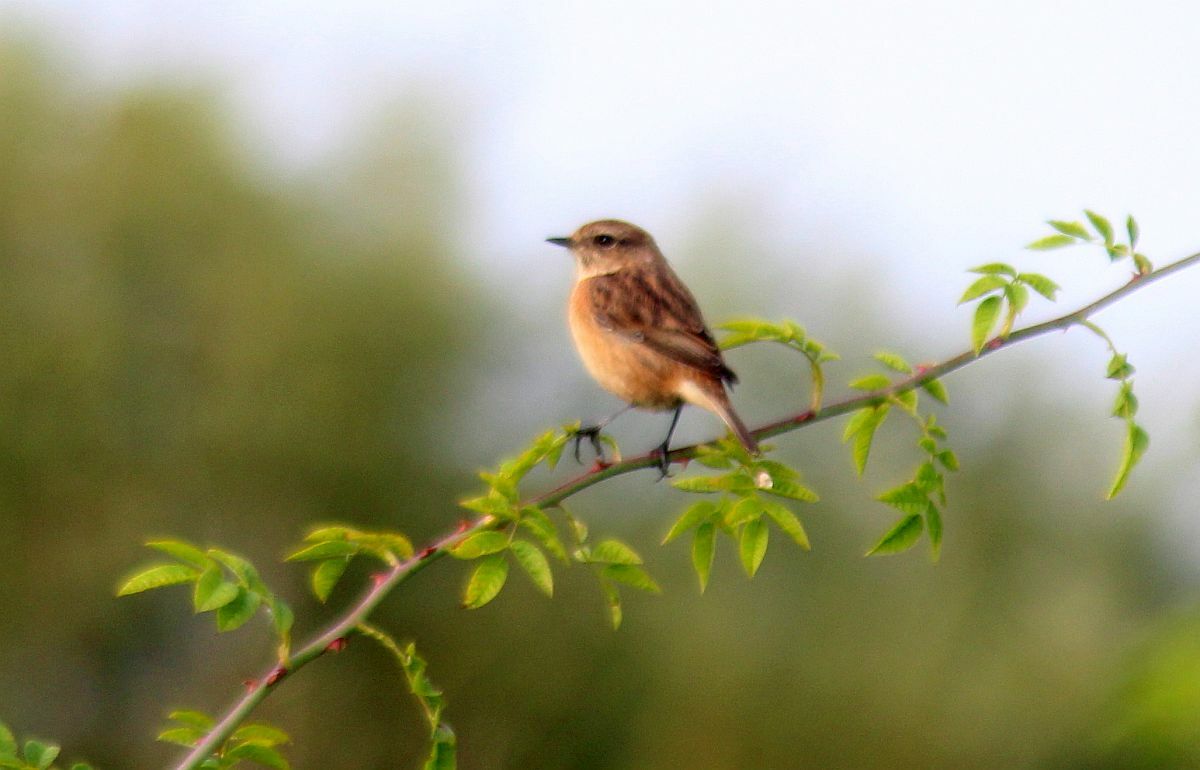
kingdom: Animalia
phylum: Chordata
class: Aves
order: Passeriformes
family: Muscicapidae
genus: Saxicola
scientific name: Saxicola rubicola
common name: European stonechat
